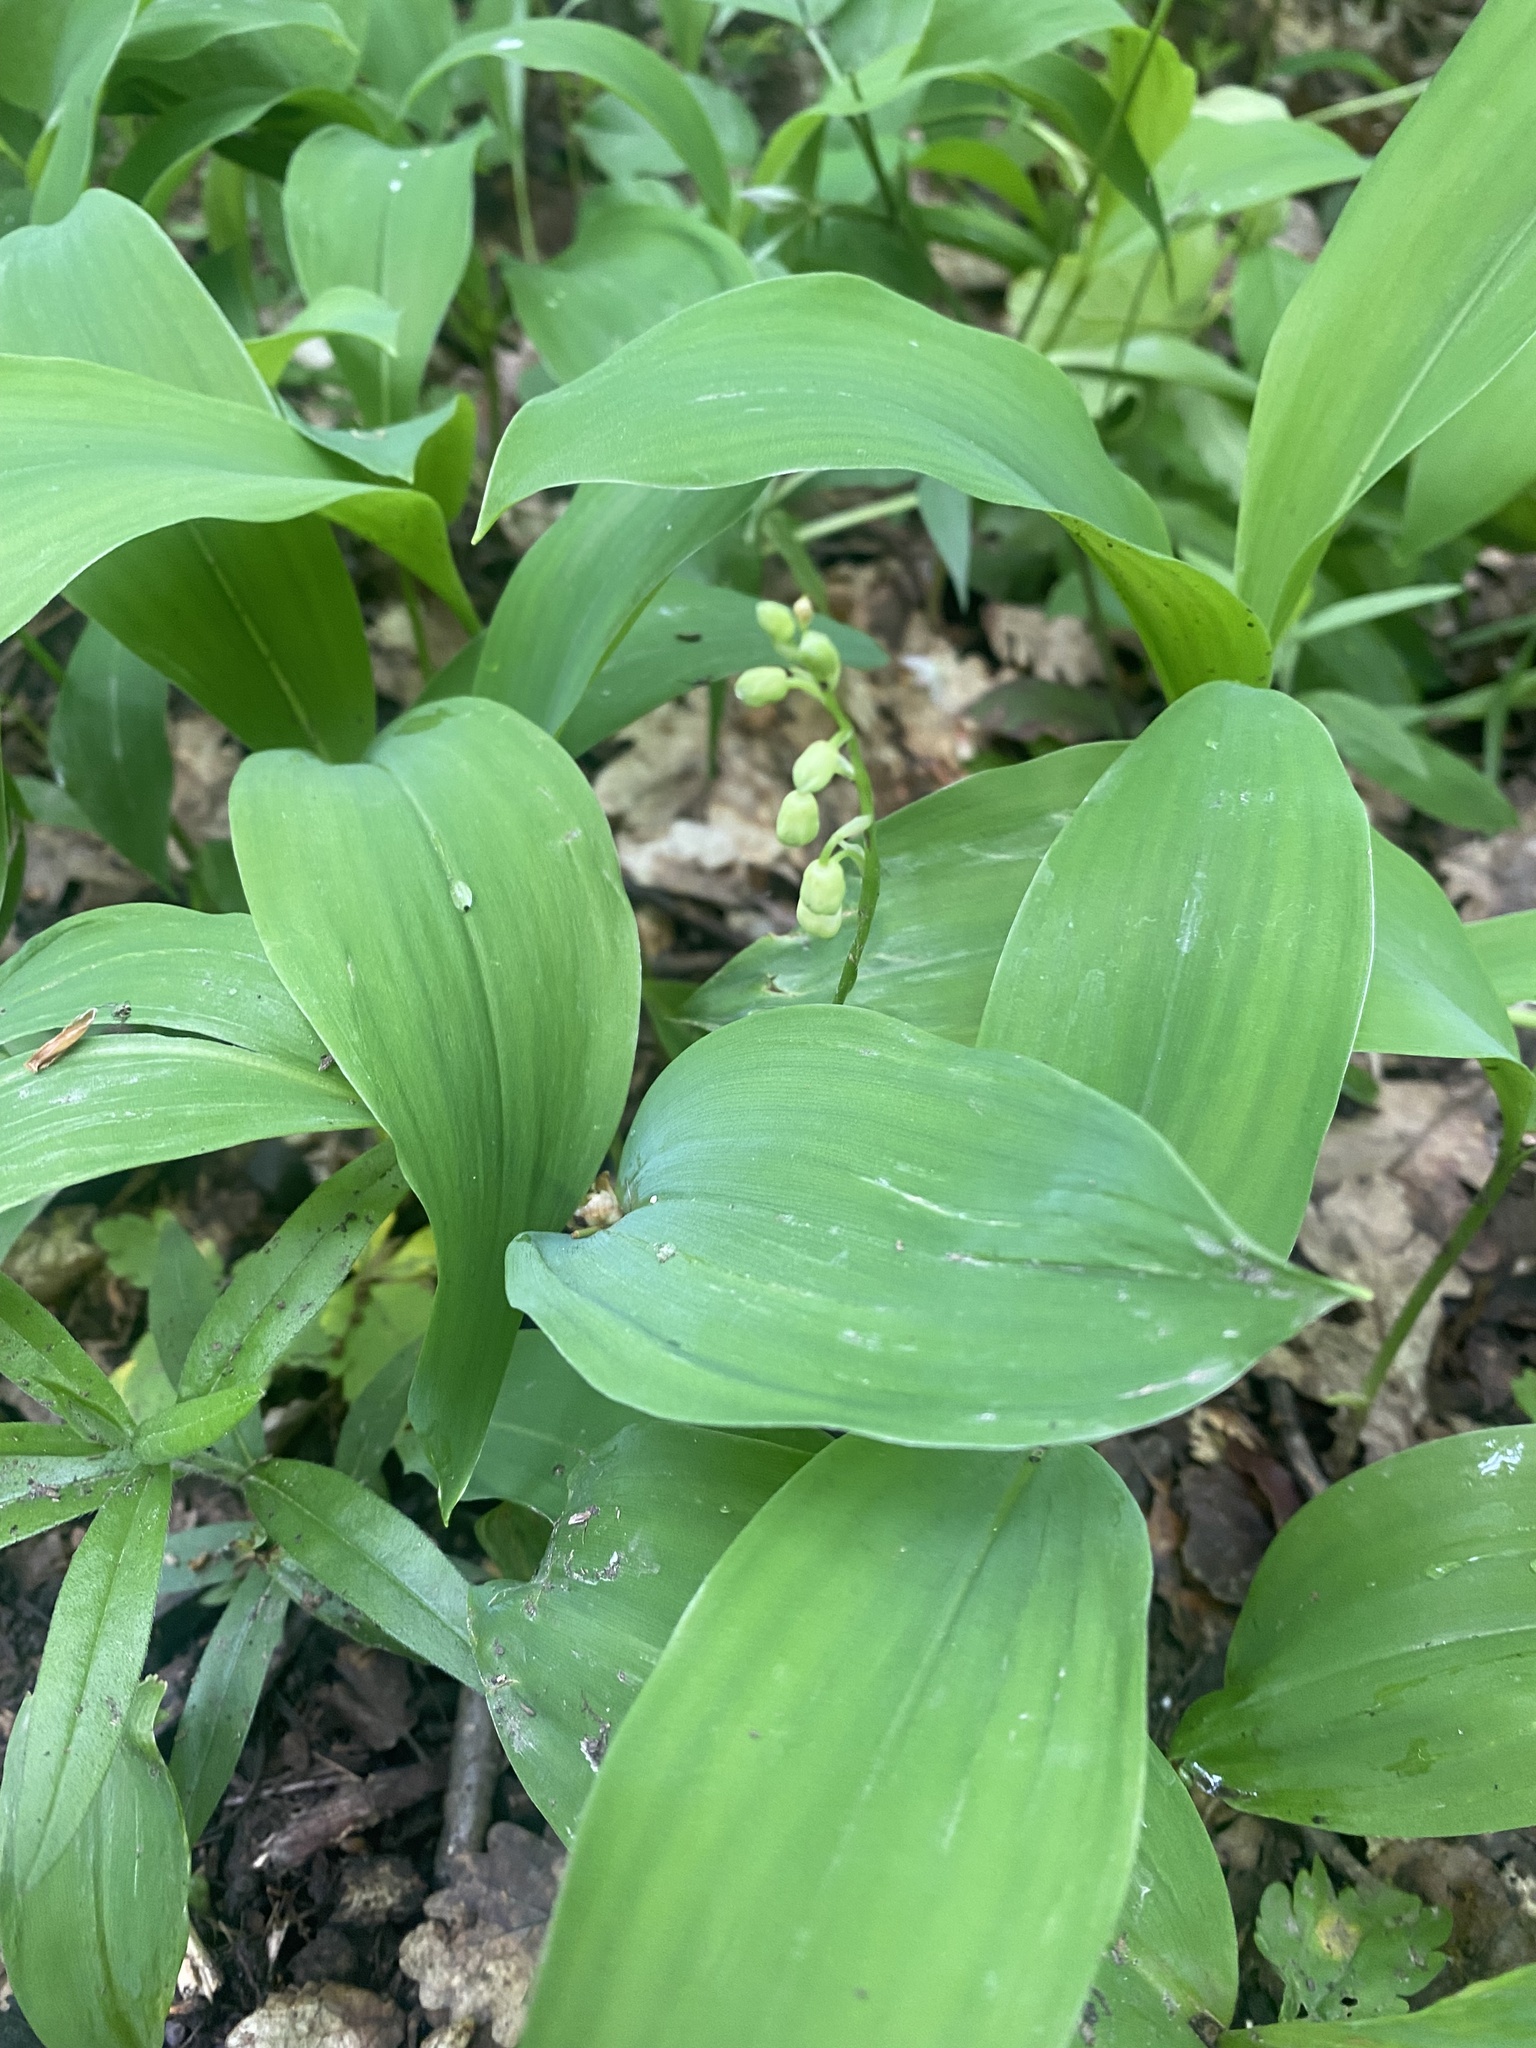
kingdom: Plantae
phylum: Tracheophyta
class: Liliopsida
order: Asparagales
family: Asparagaceae
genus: Convallaria
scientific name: Convallaria majalis
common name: Lily-of-the-valley
